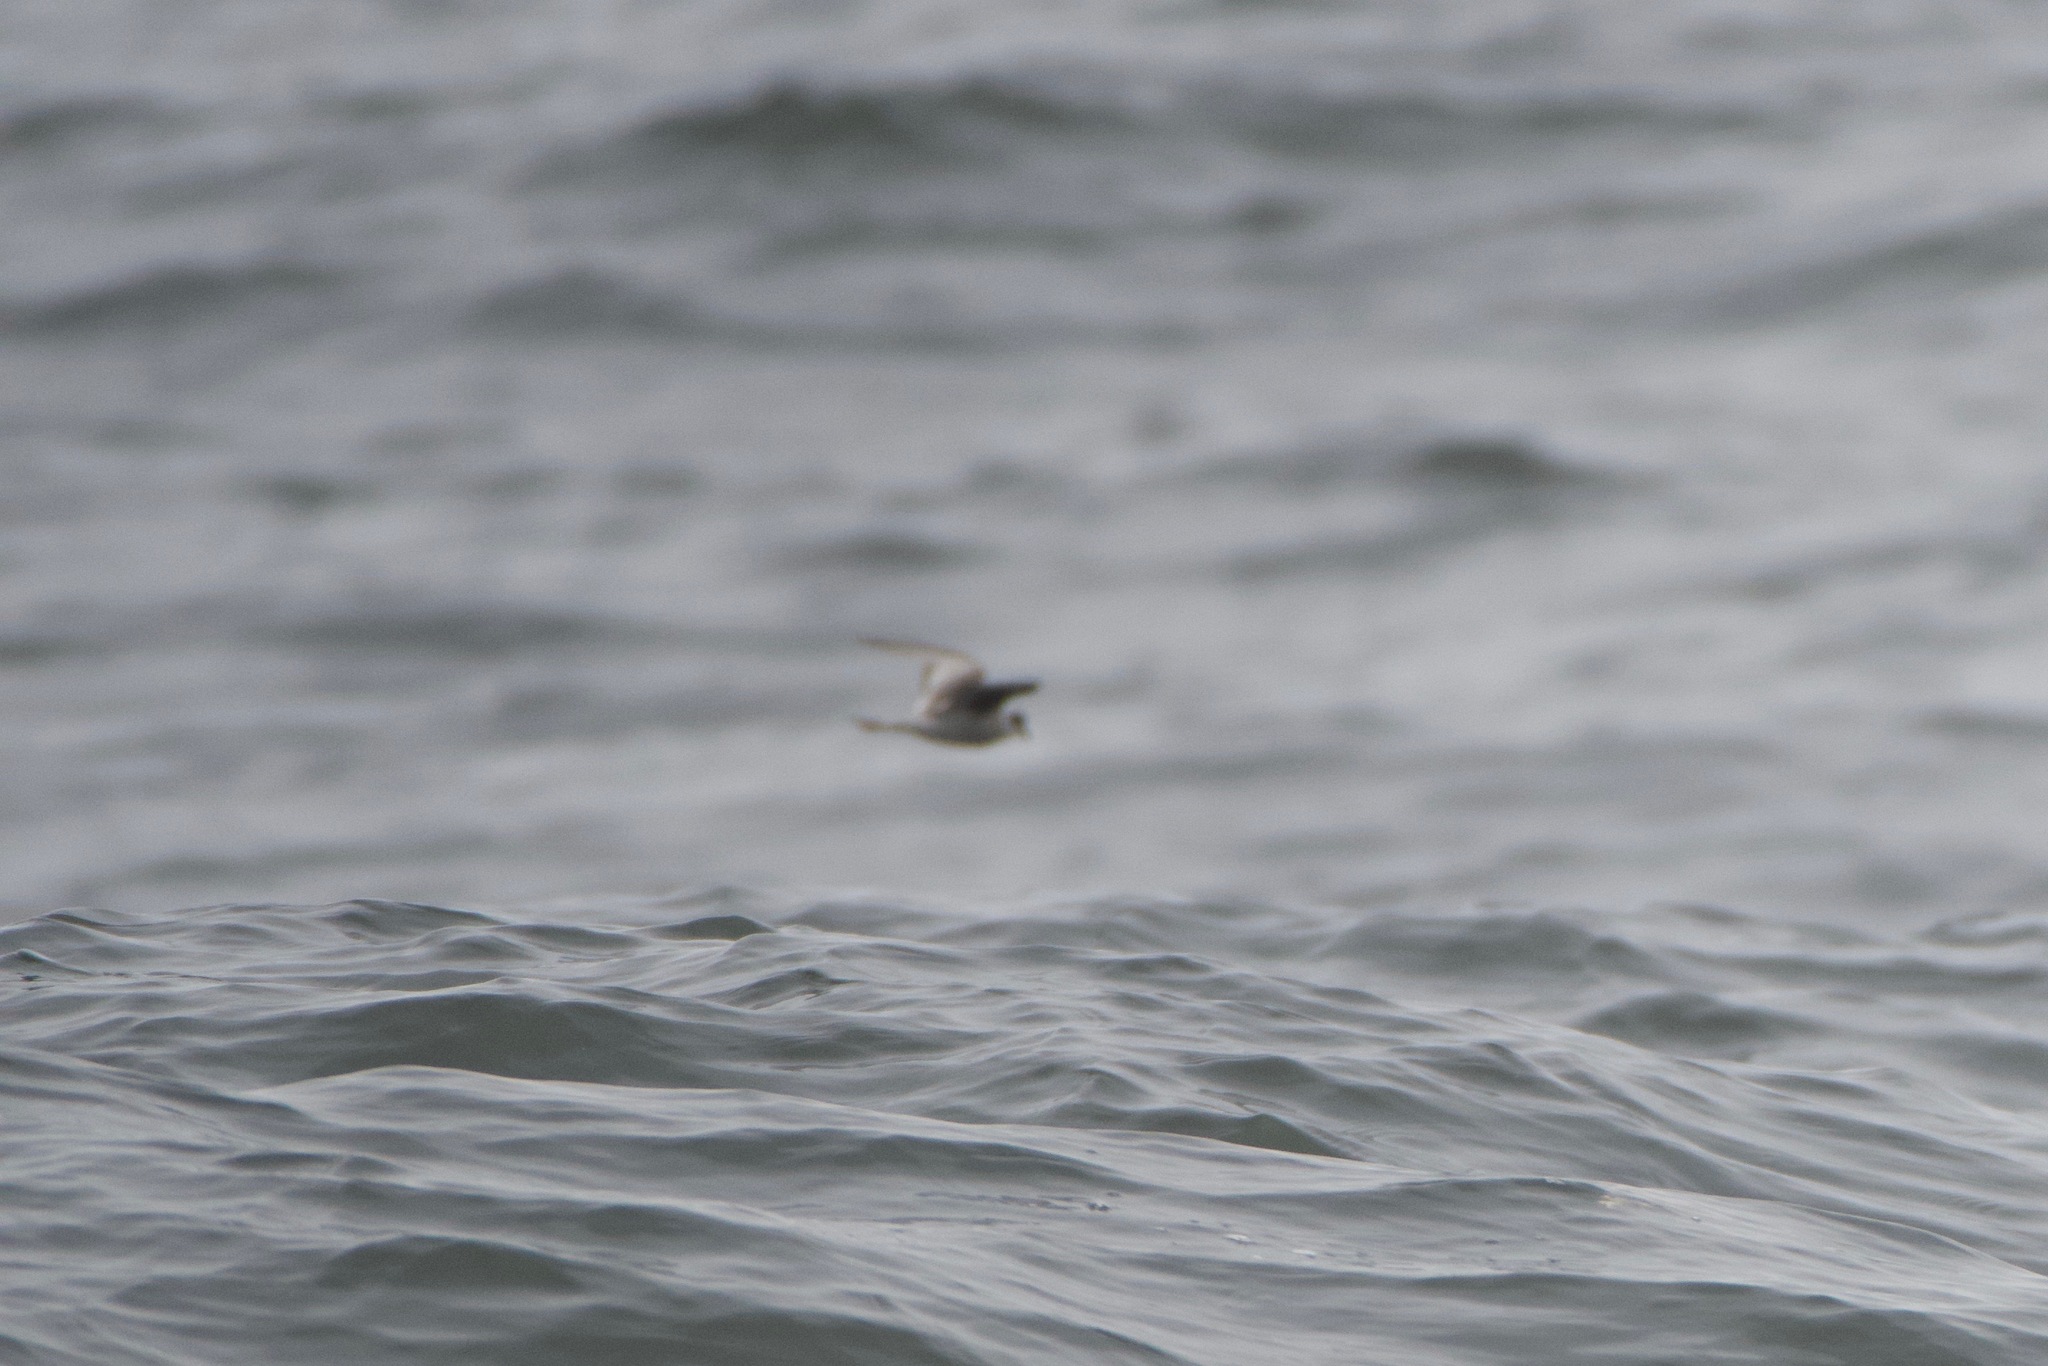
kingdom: Animalia
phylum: Chordata
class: Aves
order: Procellariiformes
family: Hydrobatidae
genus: Oceanodroma
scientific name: Oceanodroma furcata
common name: Fork-tailed storm-petrel
